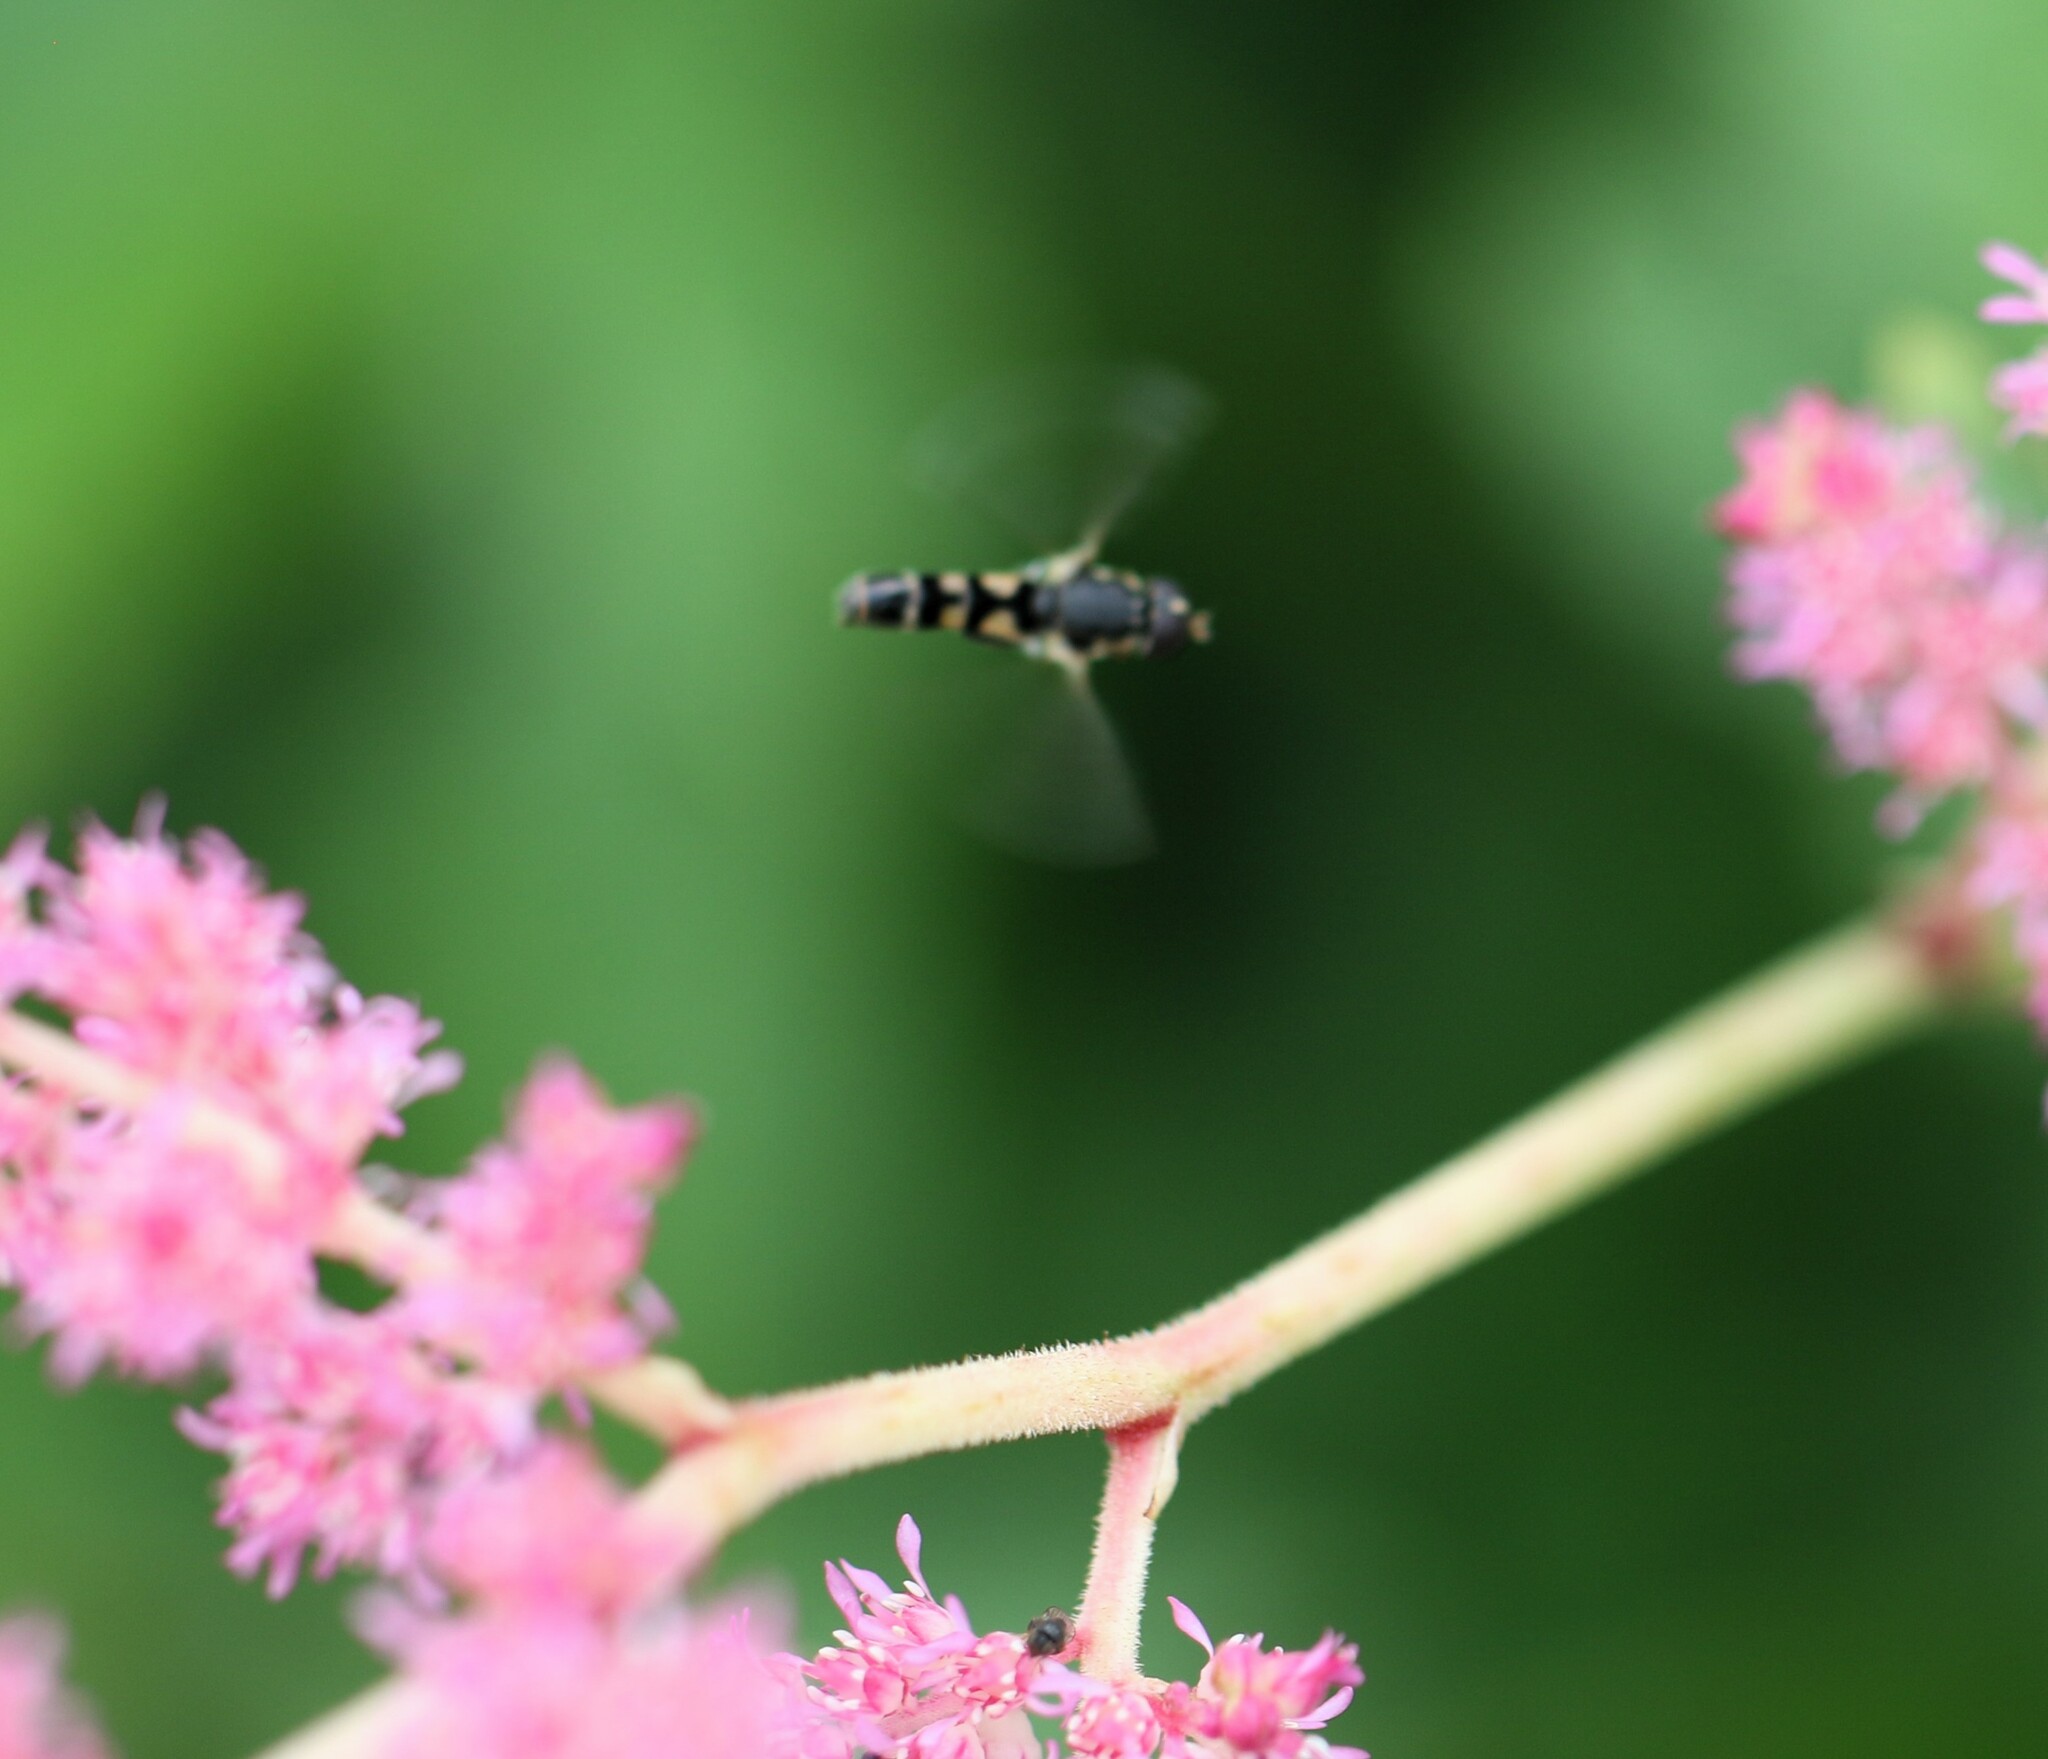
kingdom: Animalia
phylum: Arthropoda
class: Insecta
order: Diptera
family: Syrphidae
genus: Syritta
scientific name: Syritta pipiens
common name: Hover fly
